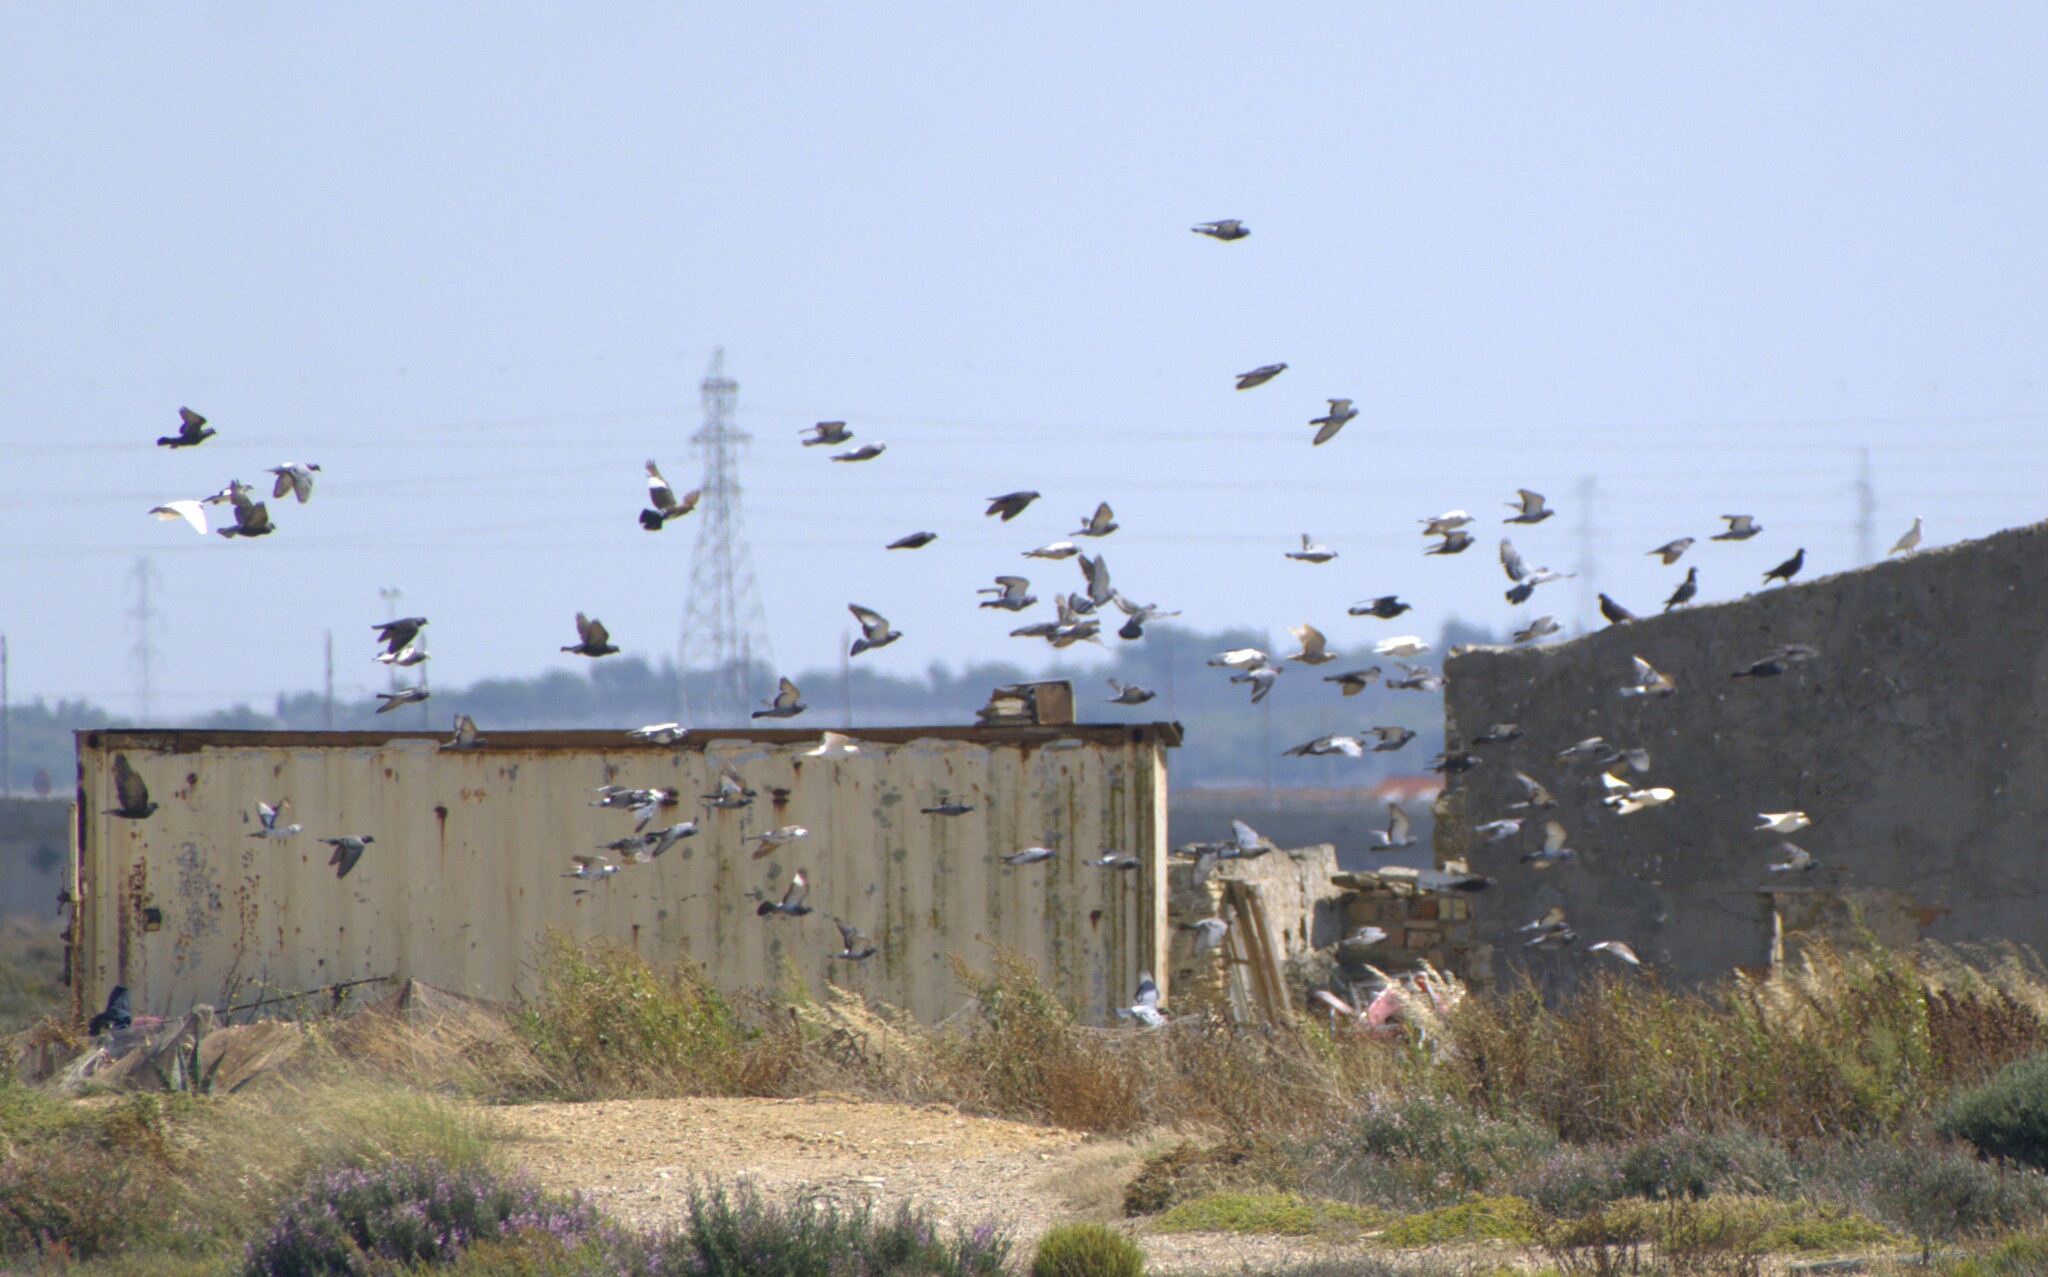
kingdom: Animalia
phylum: Chordata
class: Aves
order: Columbiformes
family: Columbidae
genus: Columba
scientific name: Columba livia
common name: Rock pigeon
